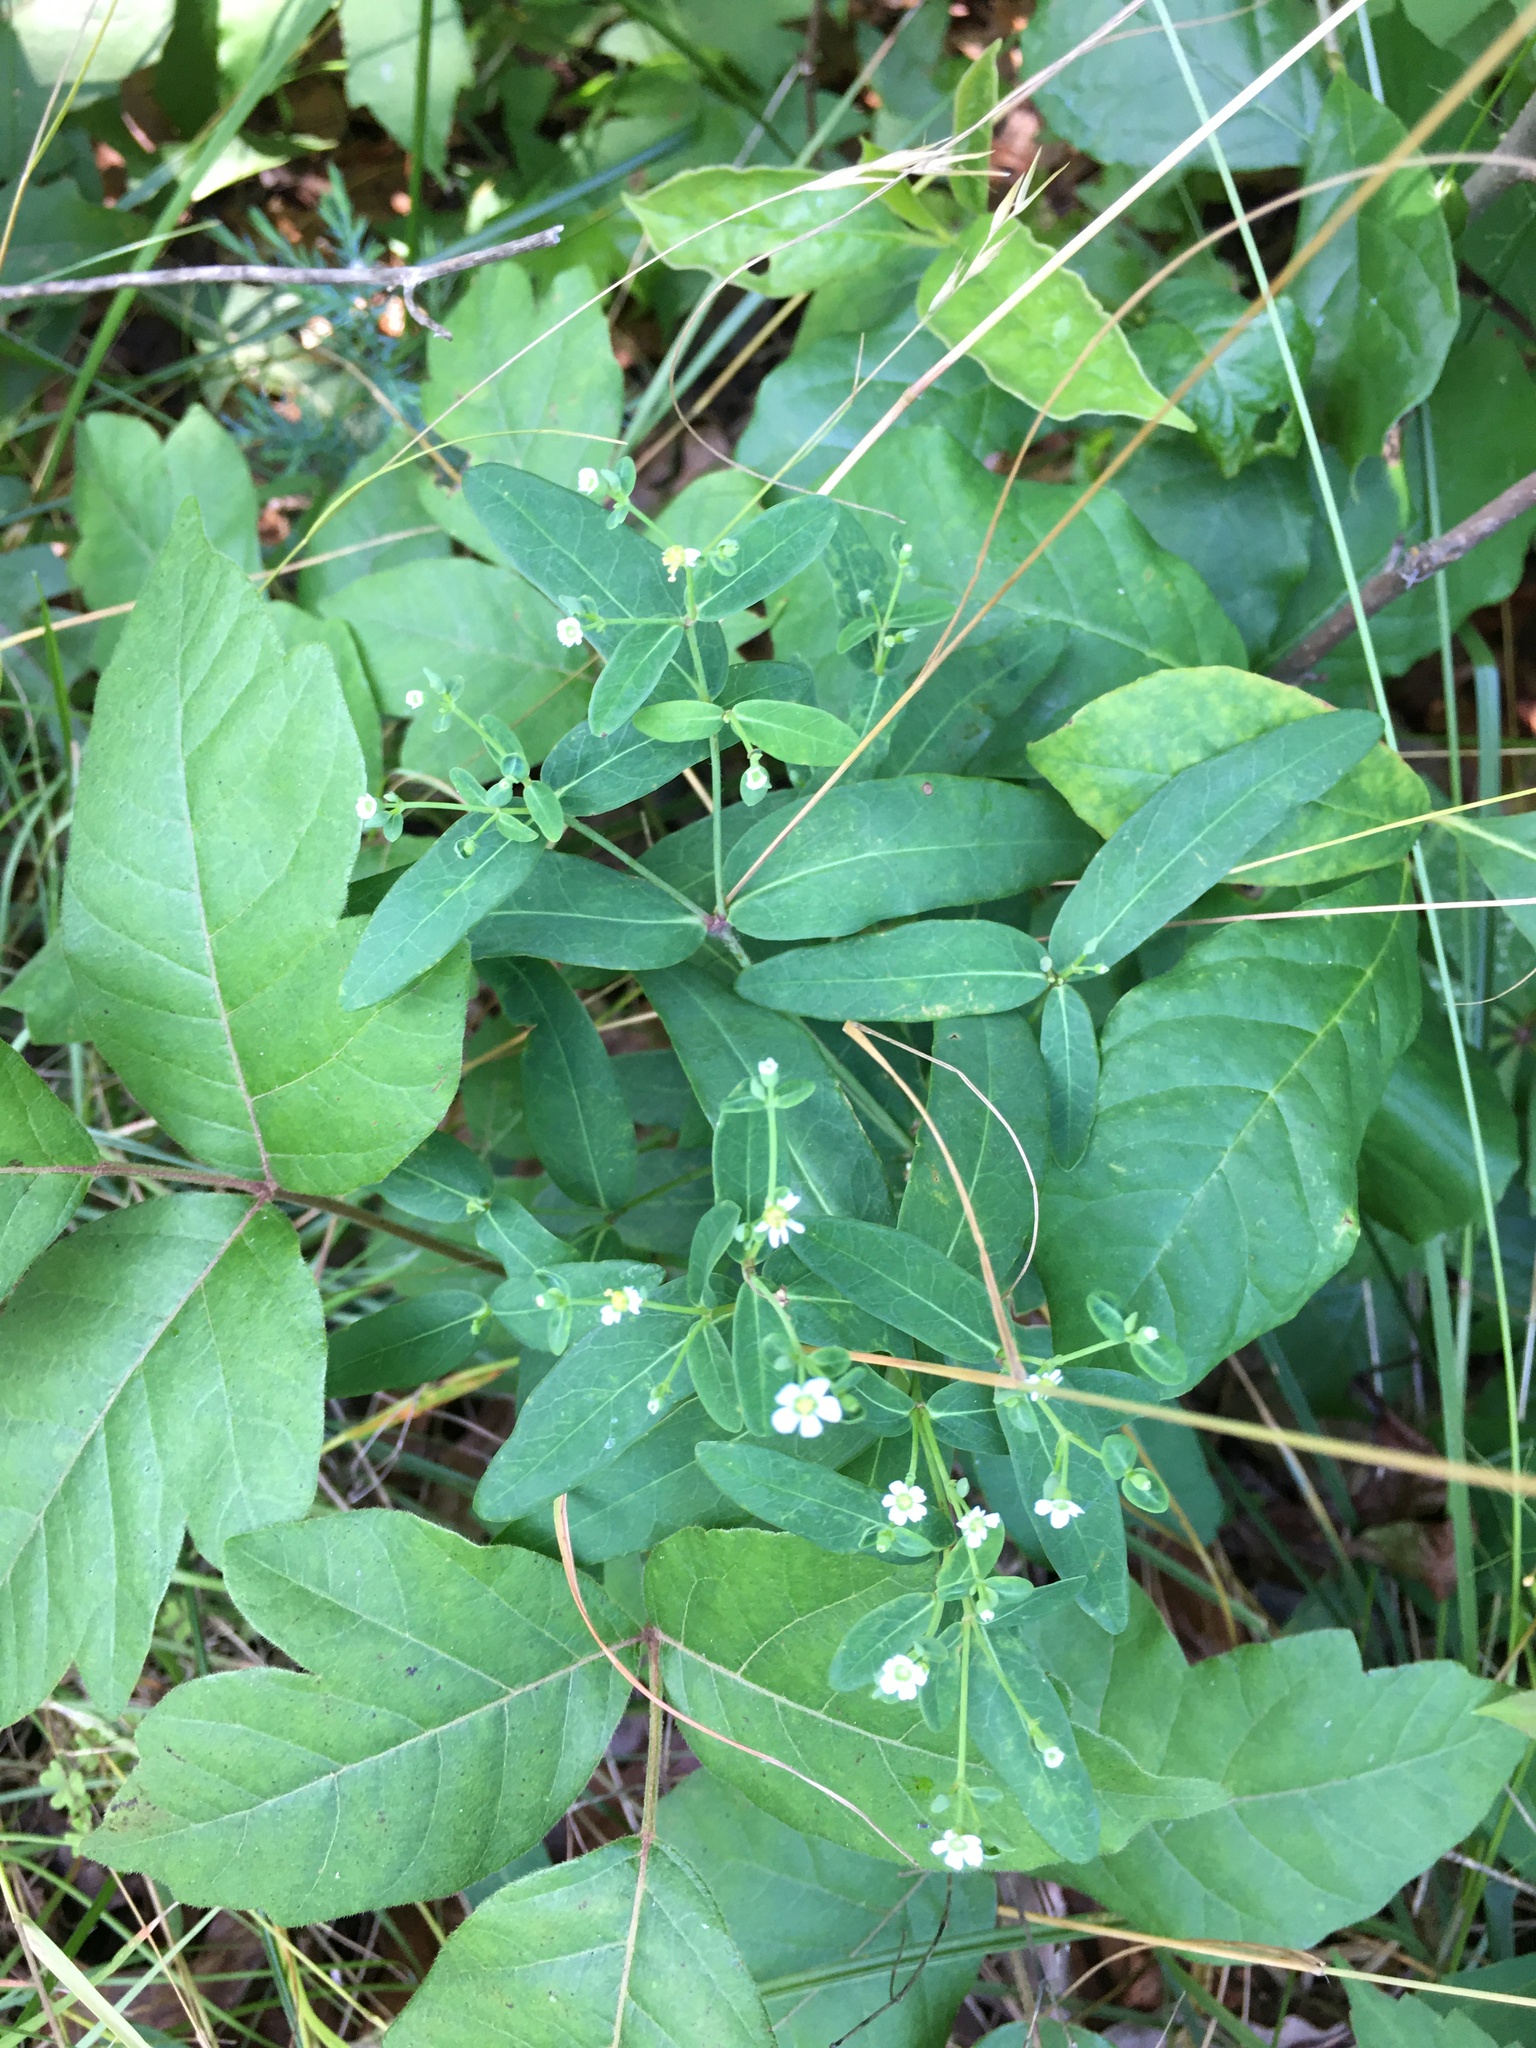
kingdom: Plantae
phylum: Tracheophyta
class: Magnoliopsida
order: Malpighiales
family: Euphorbiaceae
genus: Euphorbia
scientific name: Euphorbia corollata
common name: Flowering spurge
